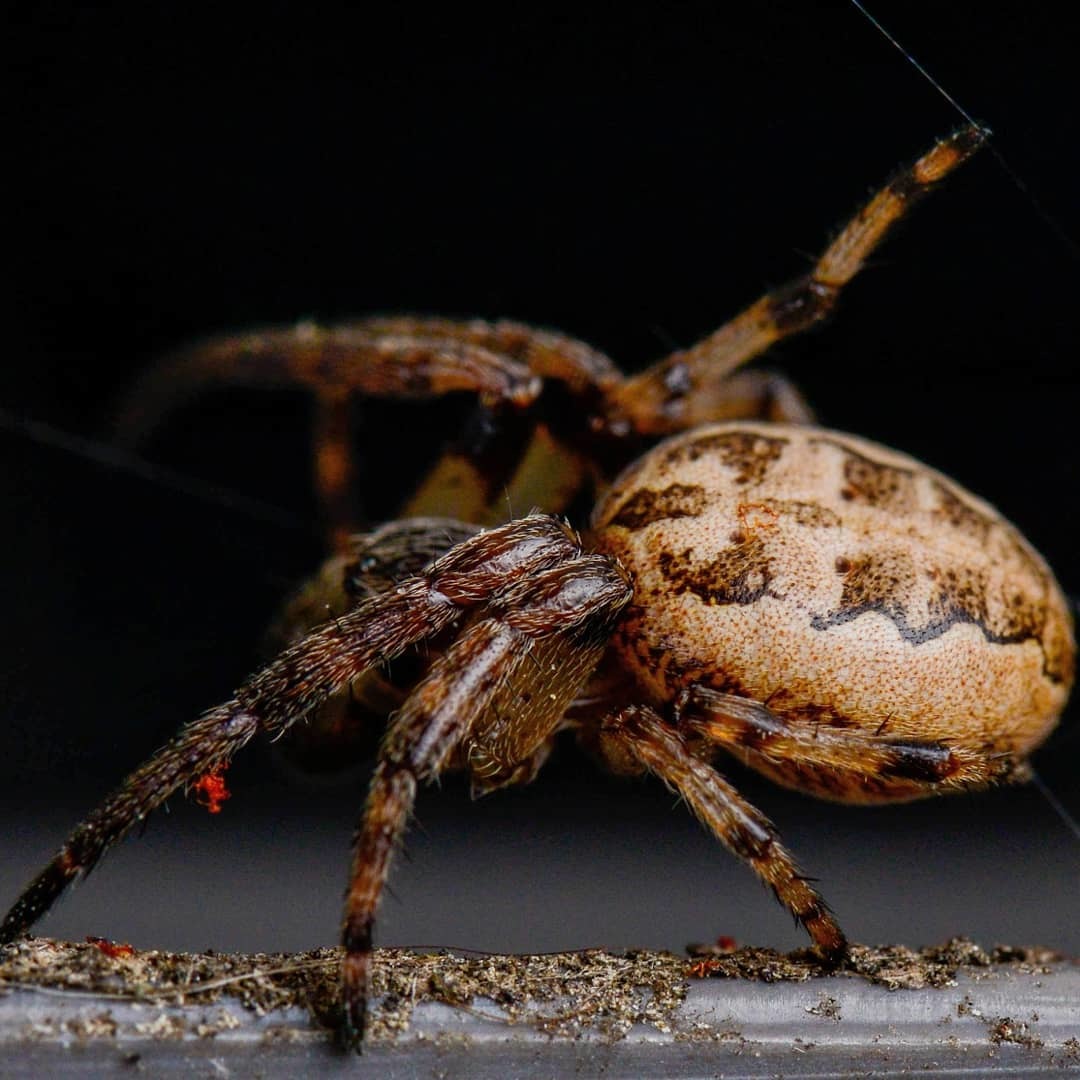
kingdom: Animalia
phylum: Arthropoda
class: Arachnida
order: Araneae
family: Araneidae
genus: Larinioides
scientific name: Larinioides cornutus
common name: Furrow orbweaver
